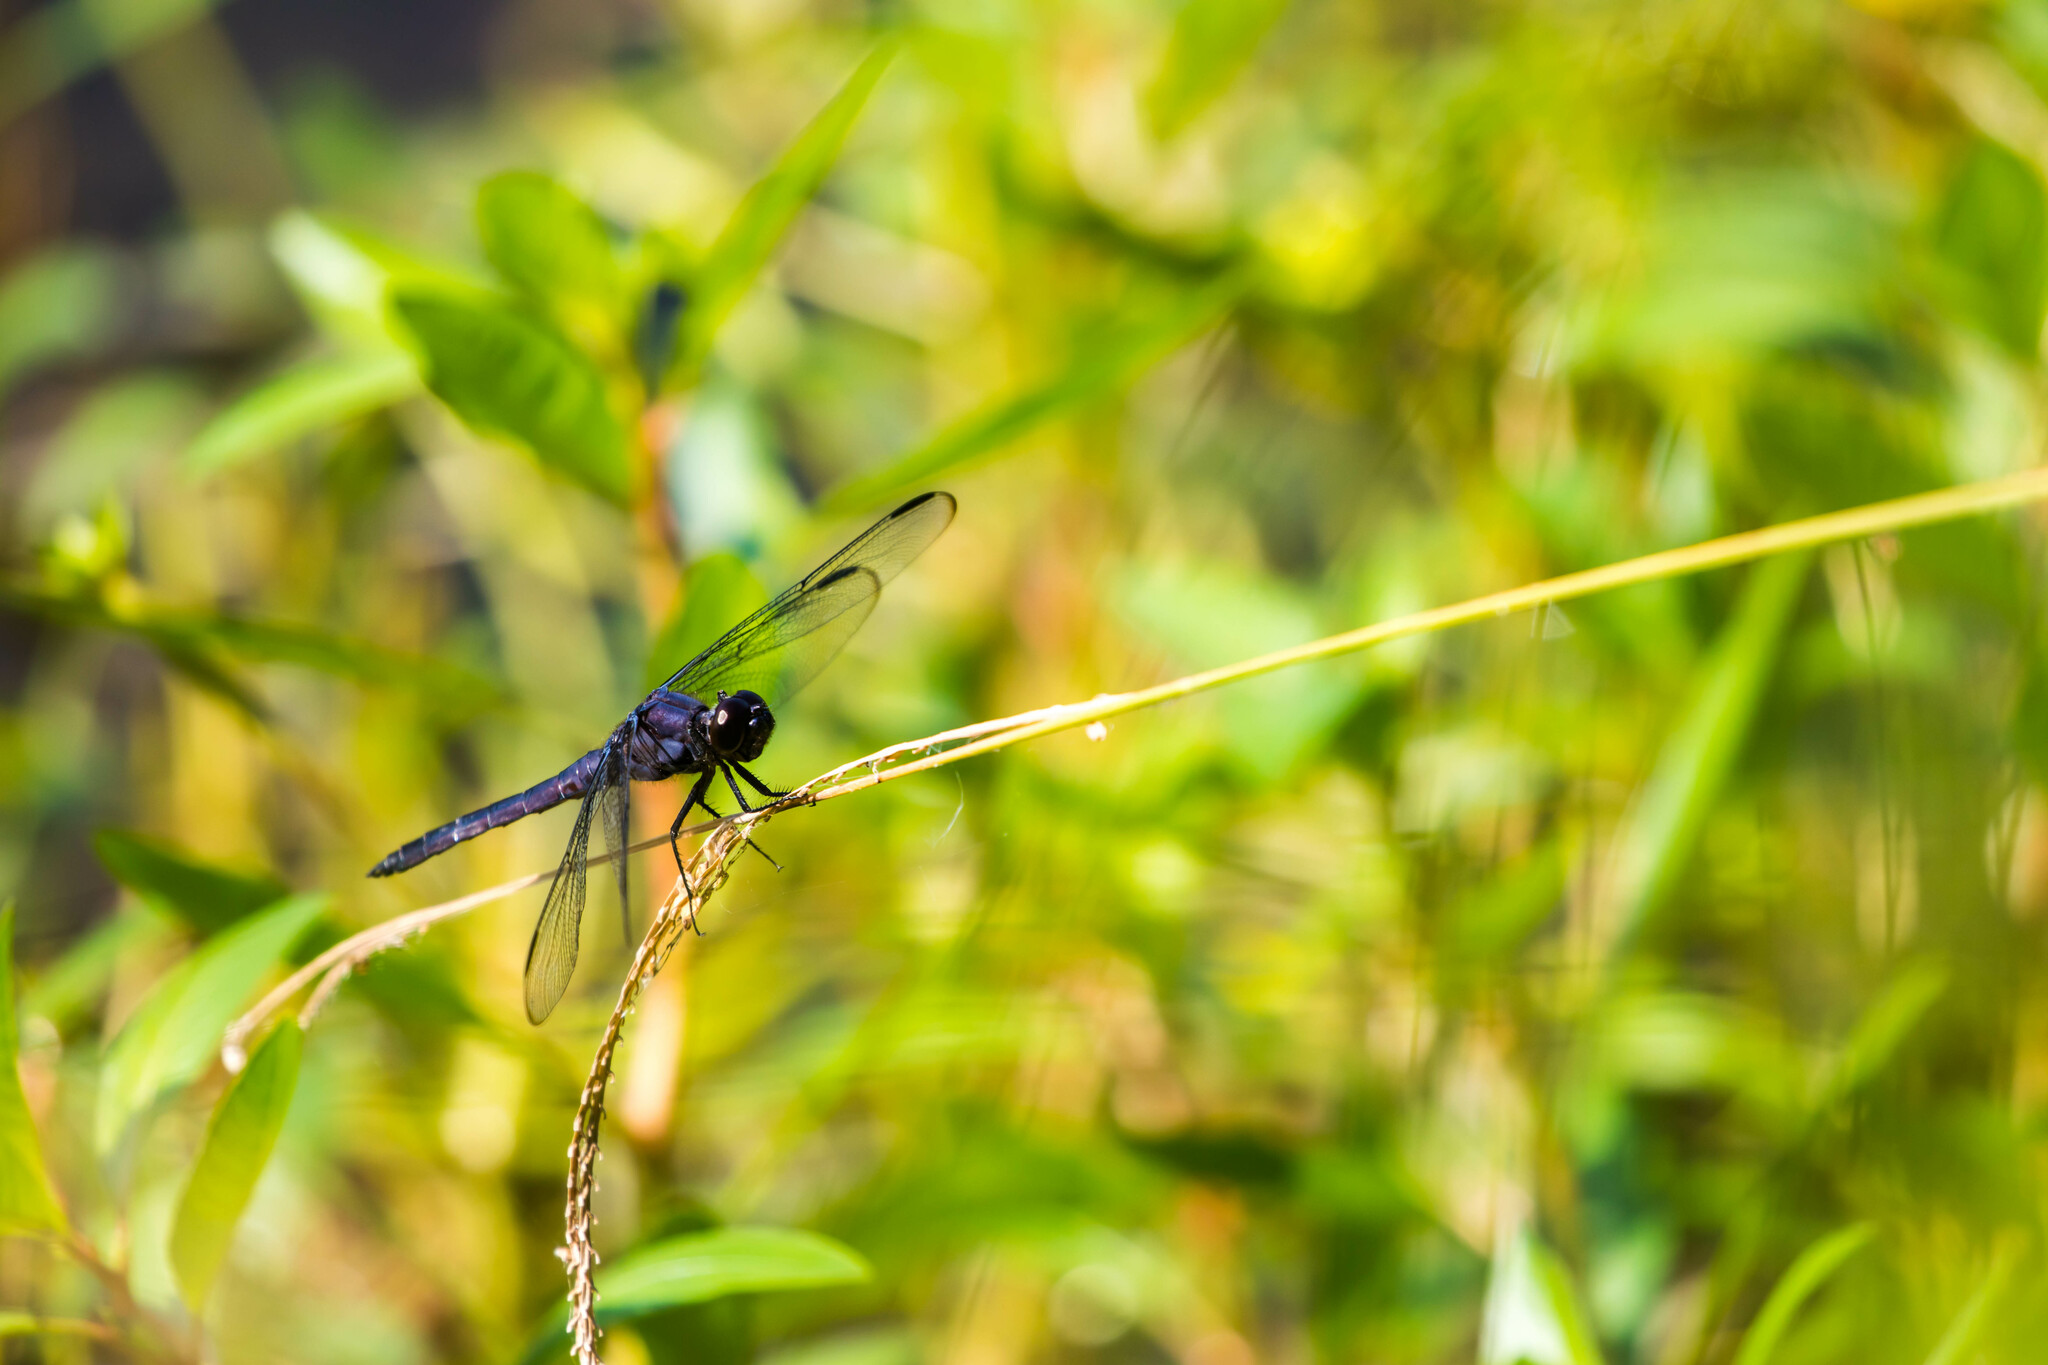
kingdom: Animalia
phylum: Arthropoda
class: Insecta
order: Odonata
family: Libellulidae
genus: Libellula
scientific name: Libellula incesta
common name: Slaty skimmer
